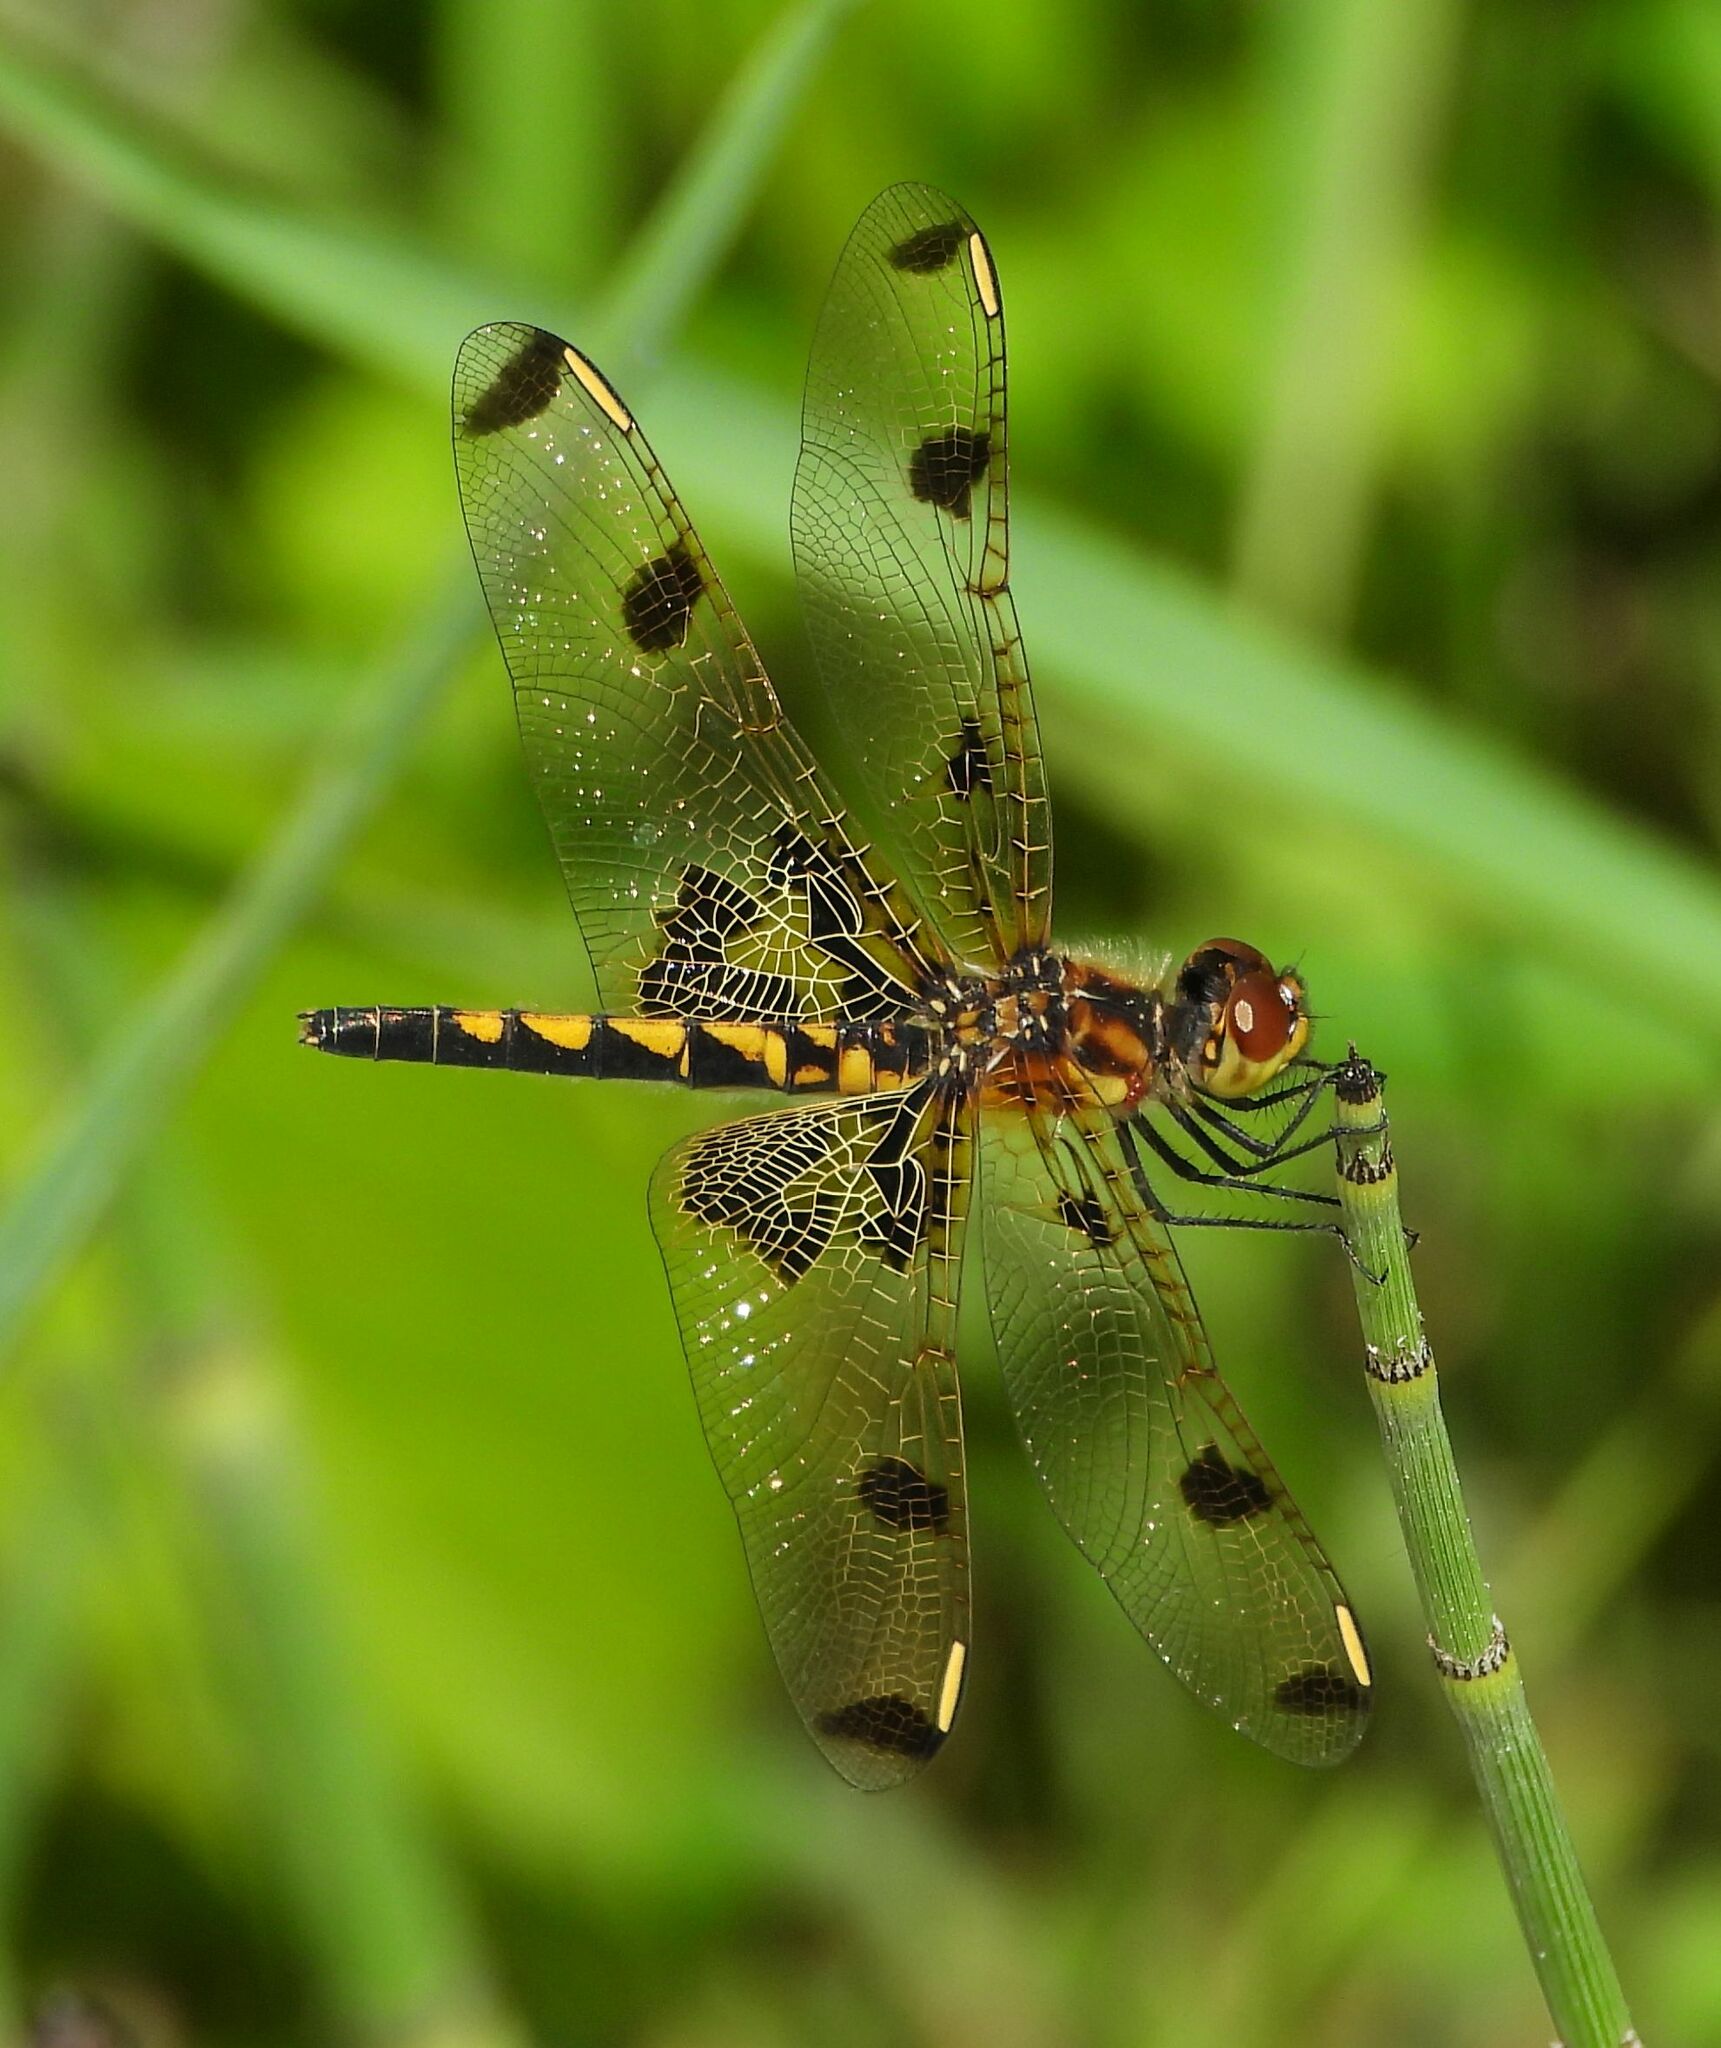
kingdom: Animalia
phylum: Arthropoda
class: Insecta
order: Odonata
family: Libellulidae
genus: Celithemis
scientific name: Celithemis elisa
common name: Calico pennant
